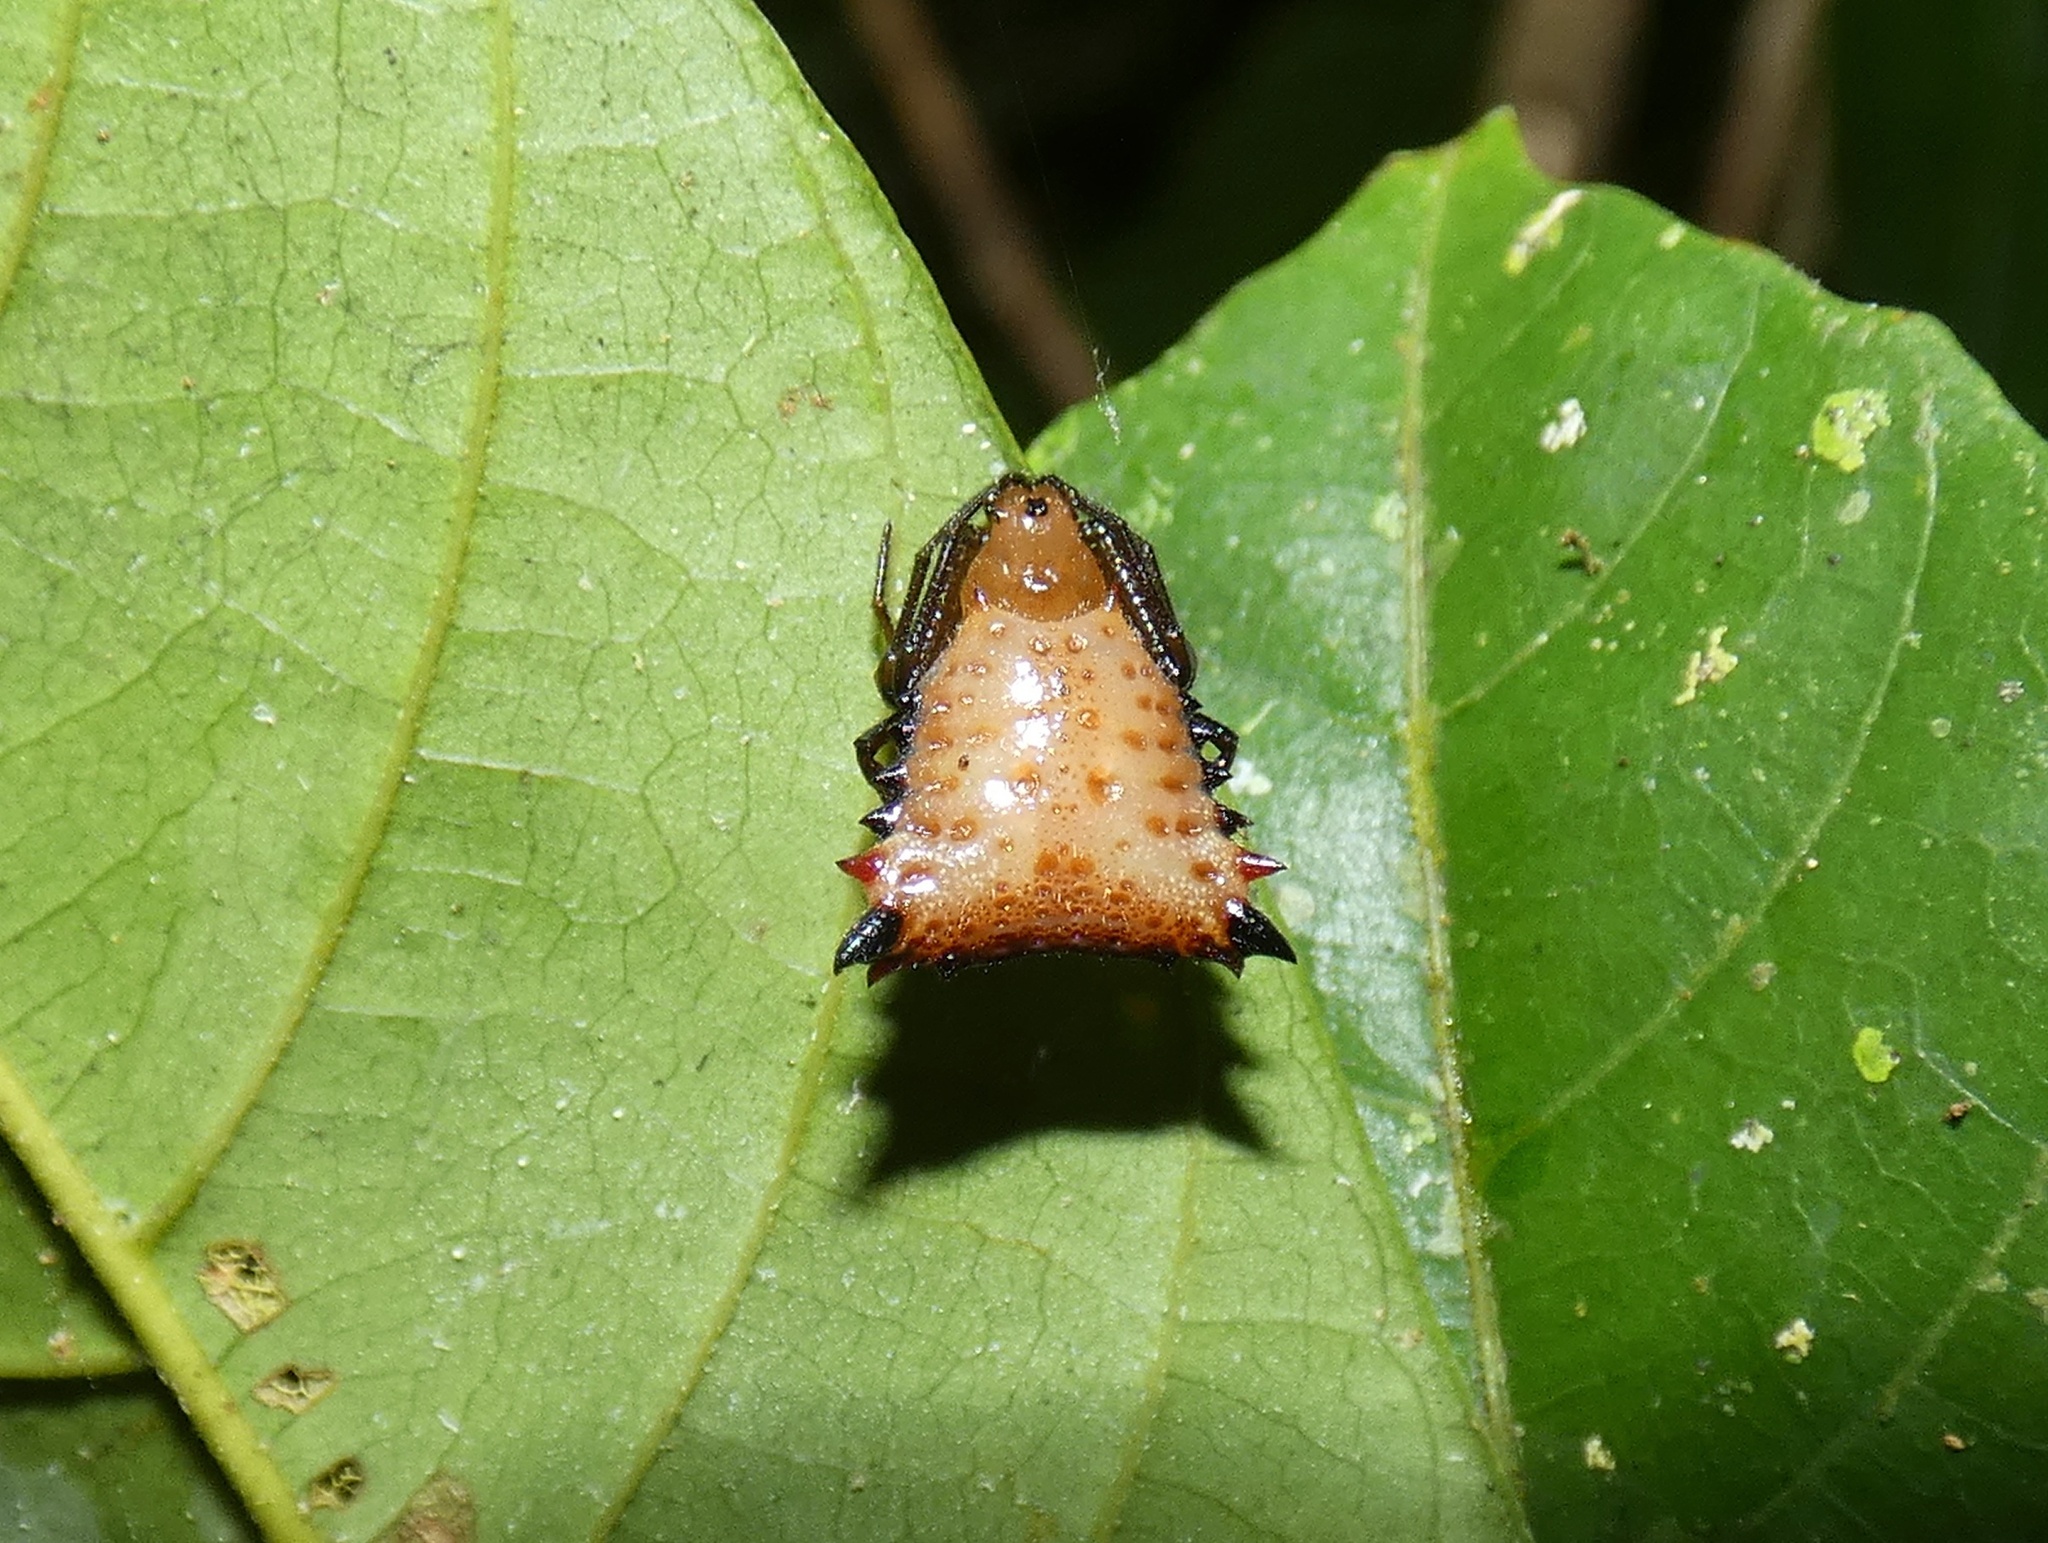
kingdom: Animalia
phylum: Arthropoda
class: Arachnida
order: Araneae
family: Araneidae
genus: Micrathena
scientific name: Micrathena excavata
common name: Orb weavers
